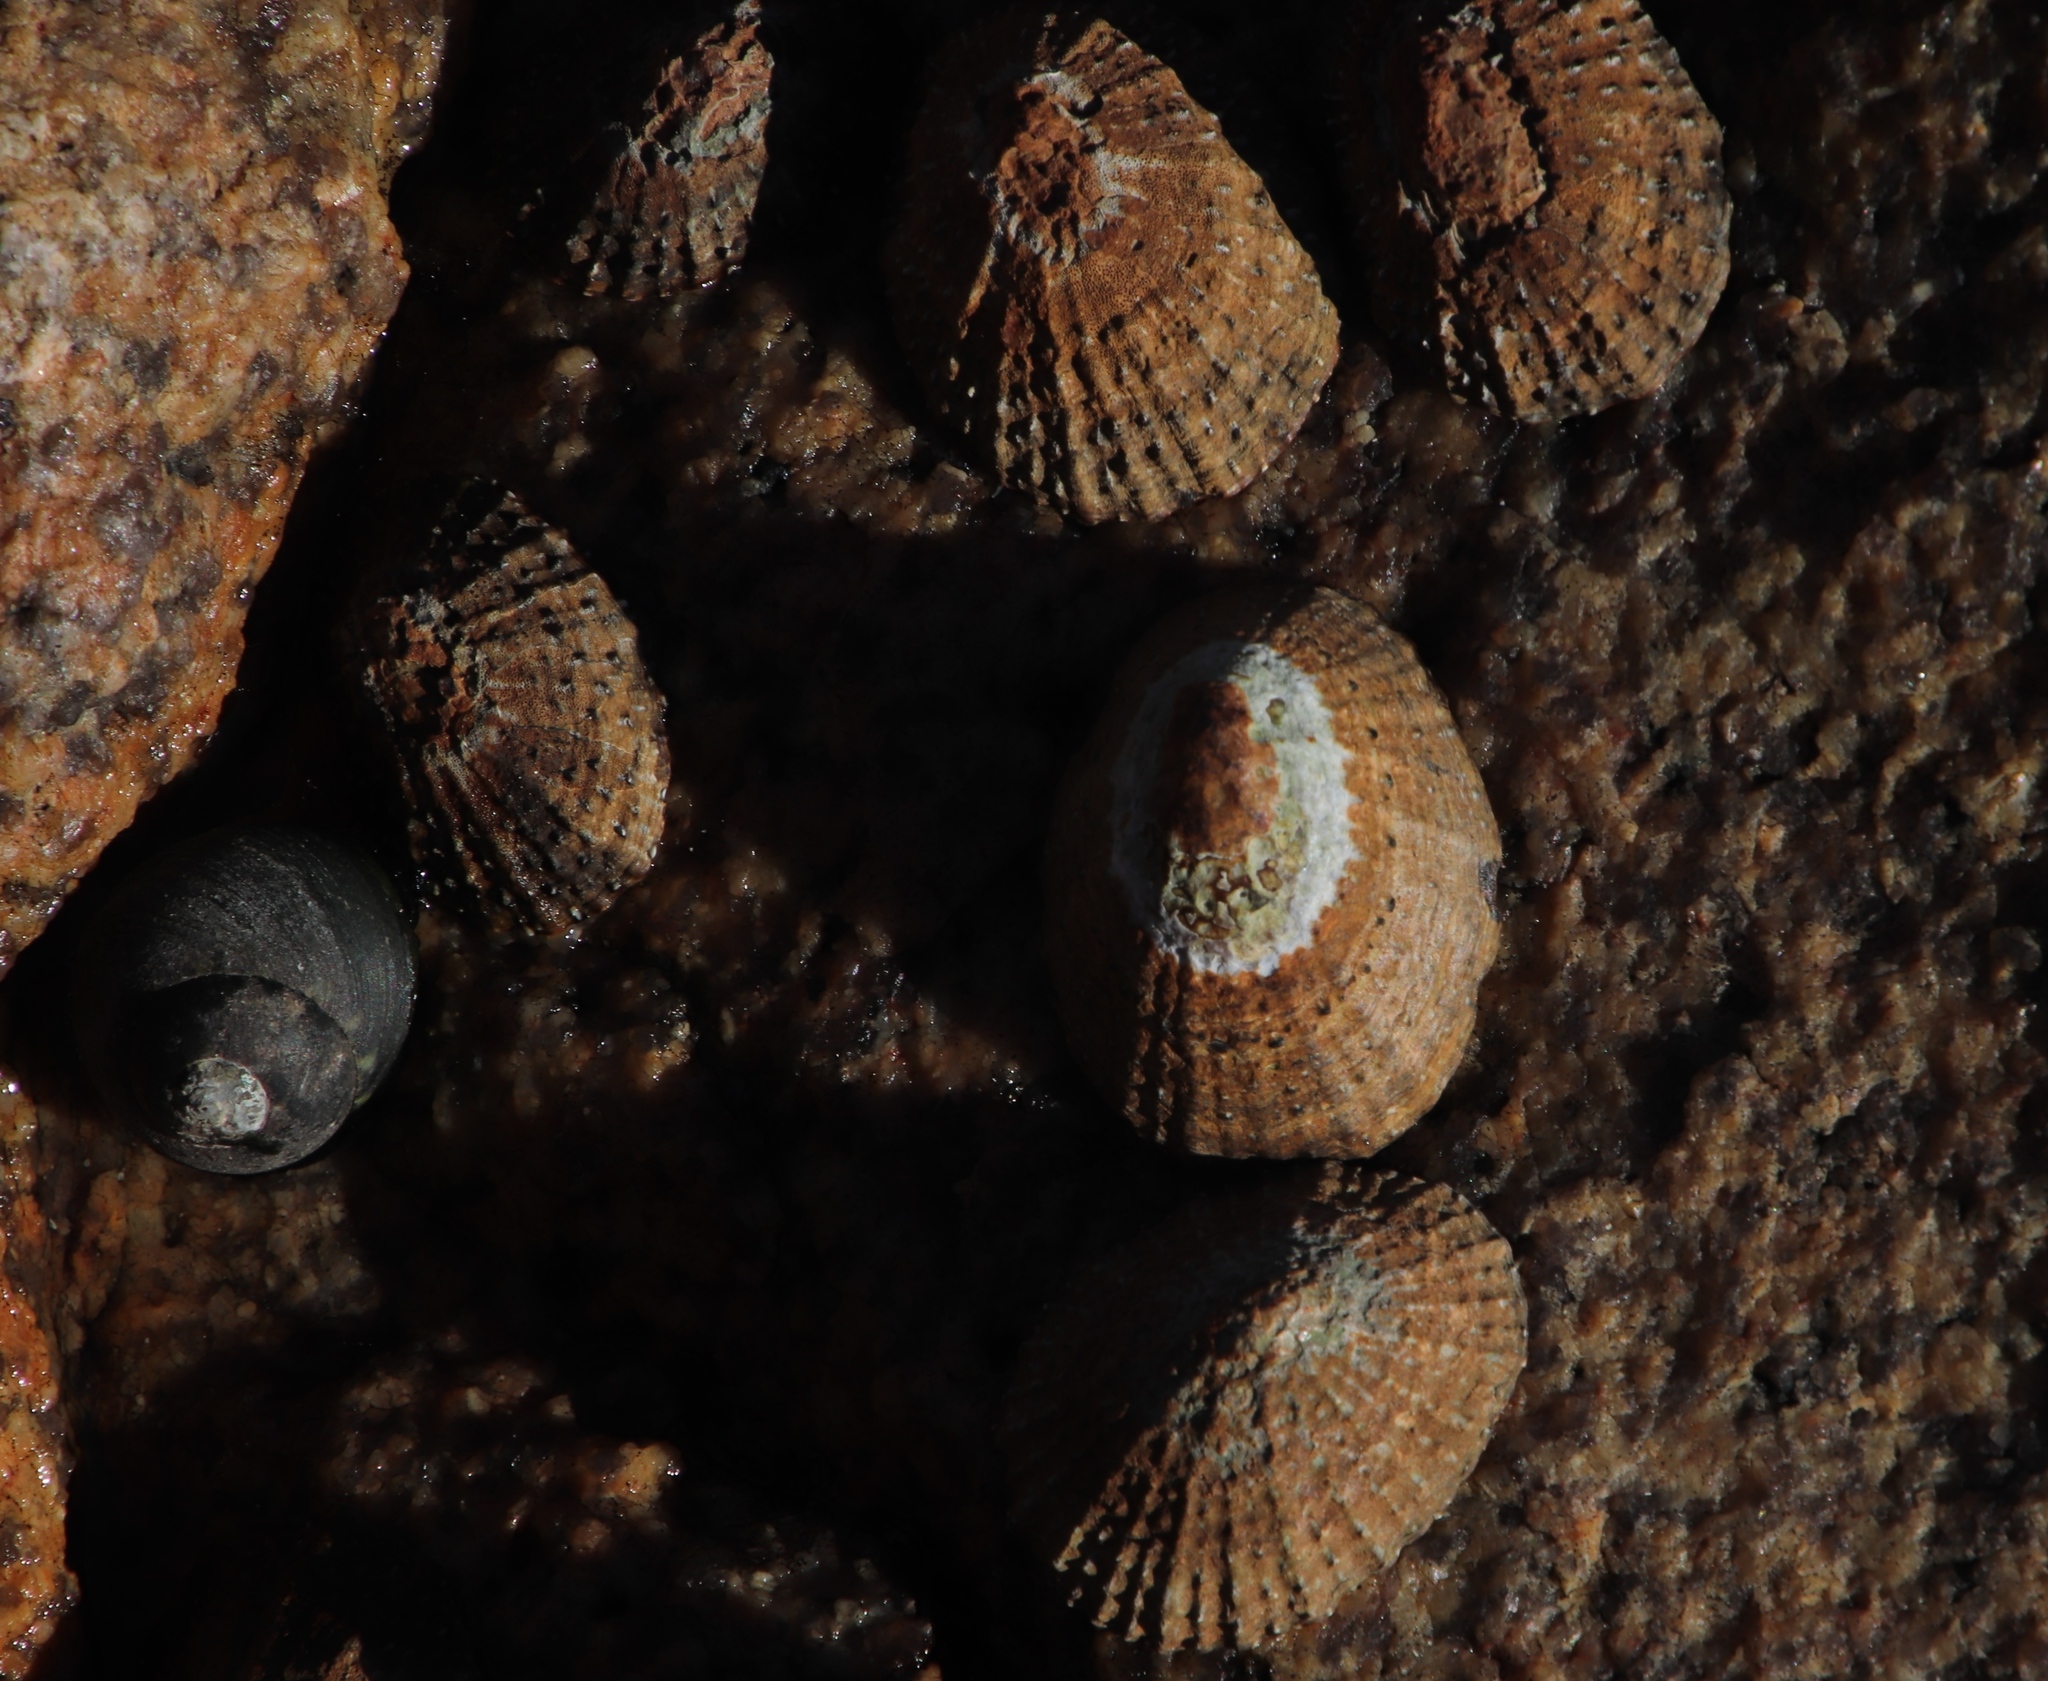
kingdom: Animalia
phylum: Mollusca
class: Gastropoda
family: Patellidae
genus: Scutellastra
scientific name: Scutellastra granularis
